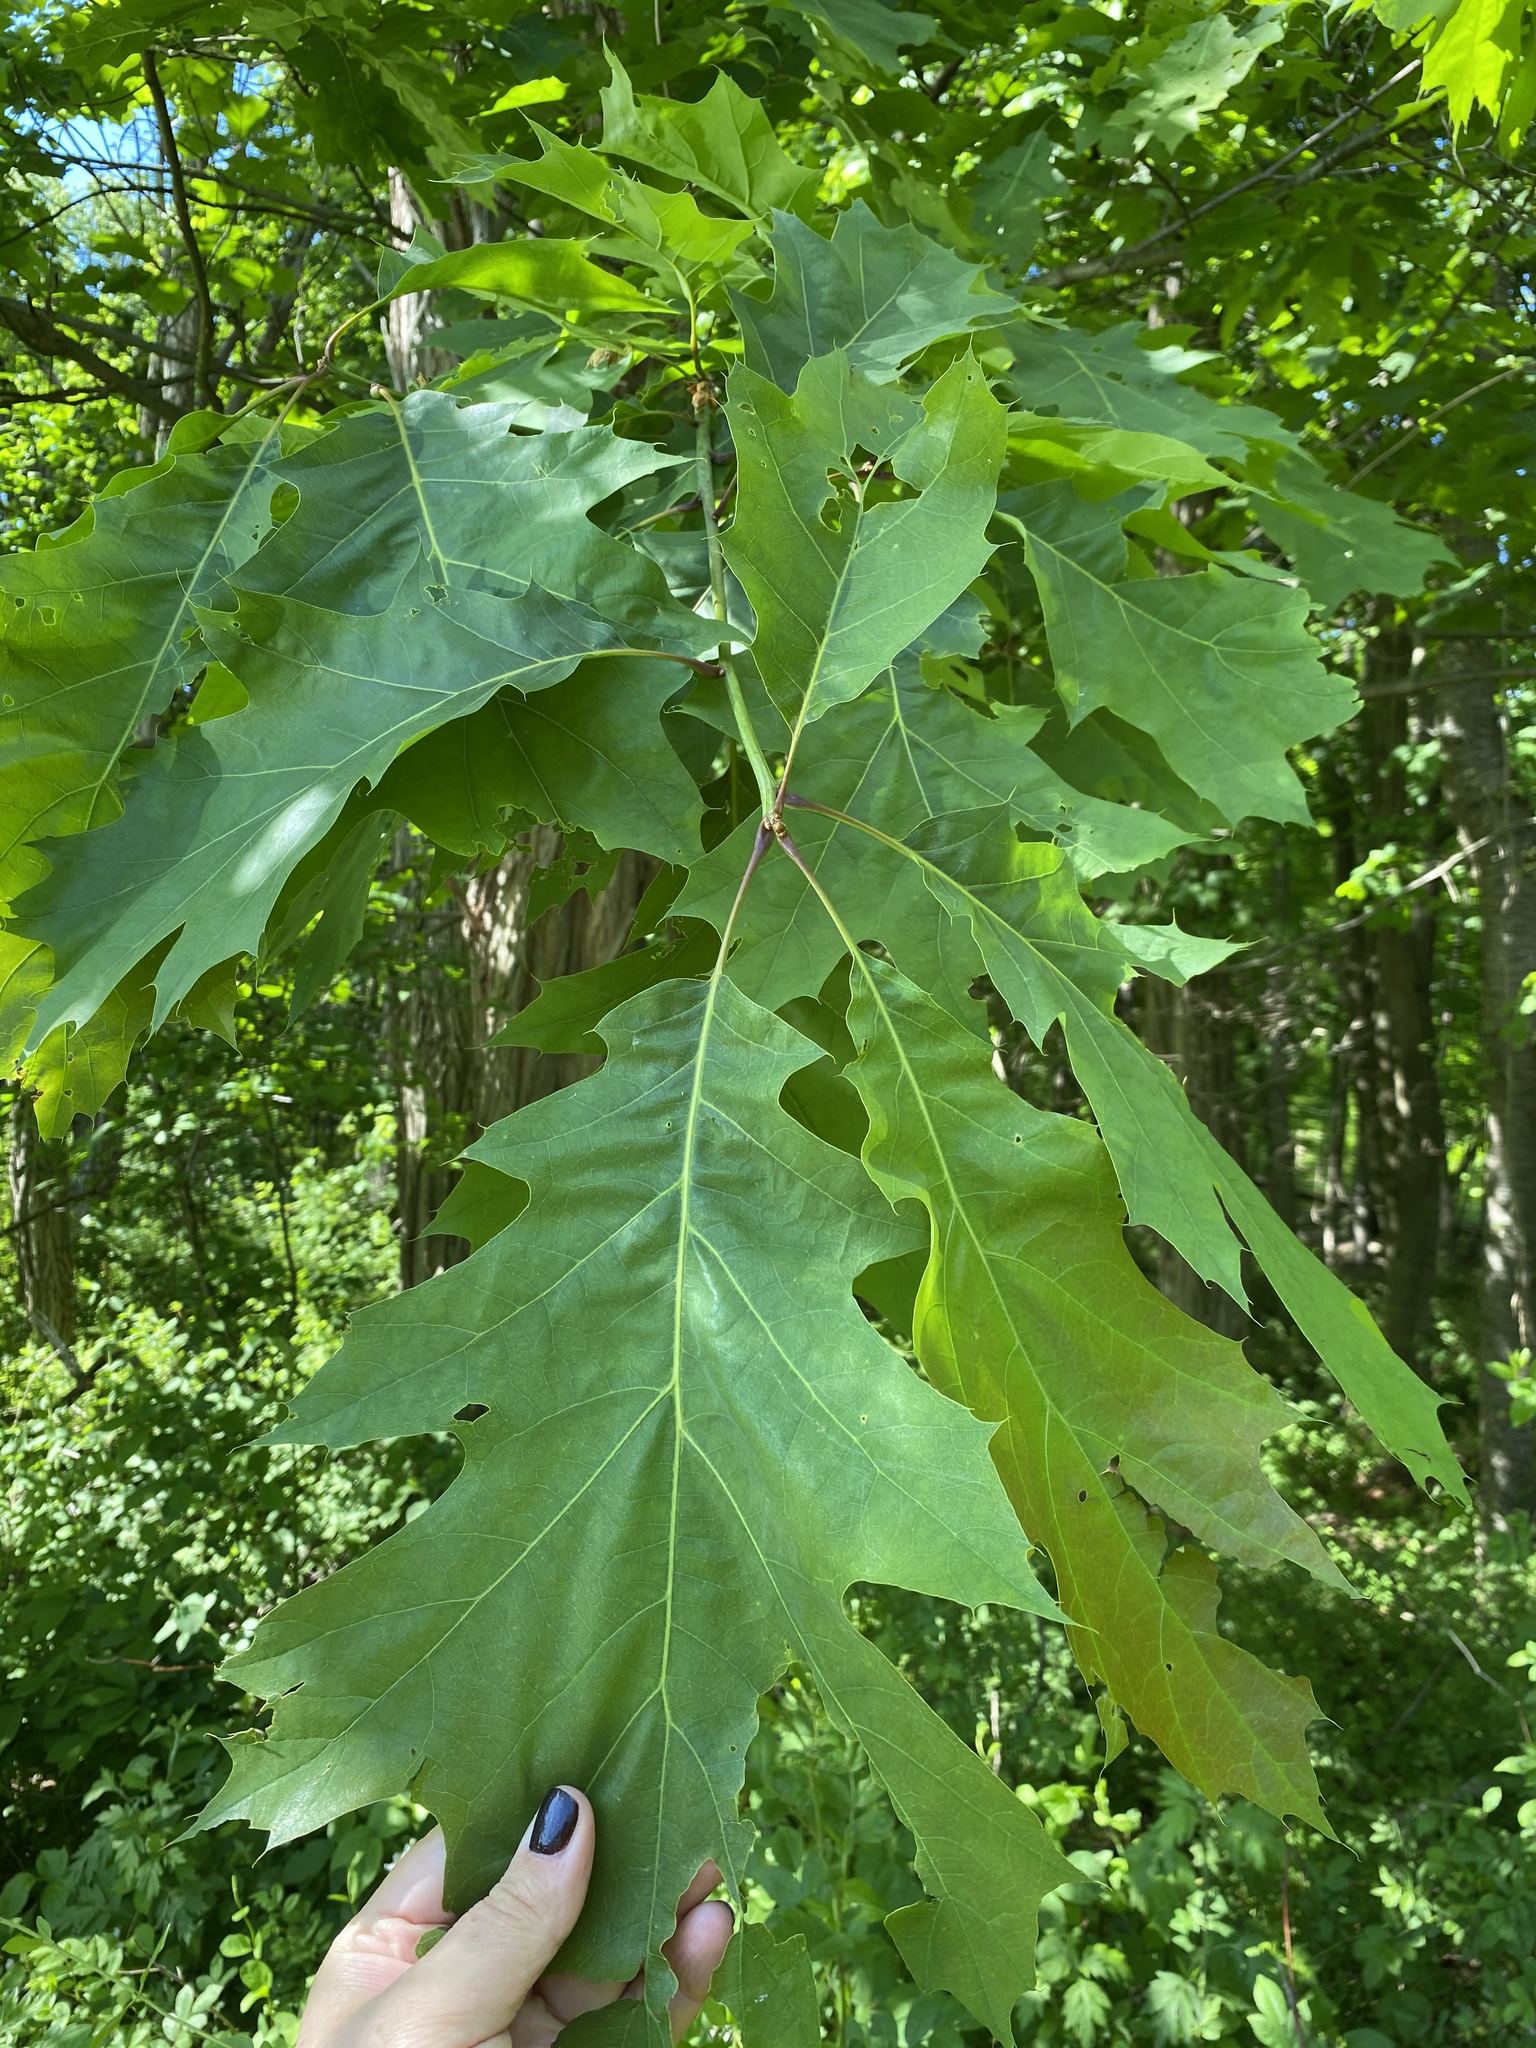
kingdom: Plantae
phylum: Tracheophyta
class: Magnoliopsida
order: Fagales
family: Fagaceae
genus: Quercus
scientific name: Quercus rubra
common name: Red oak
